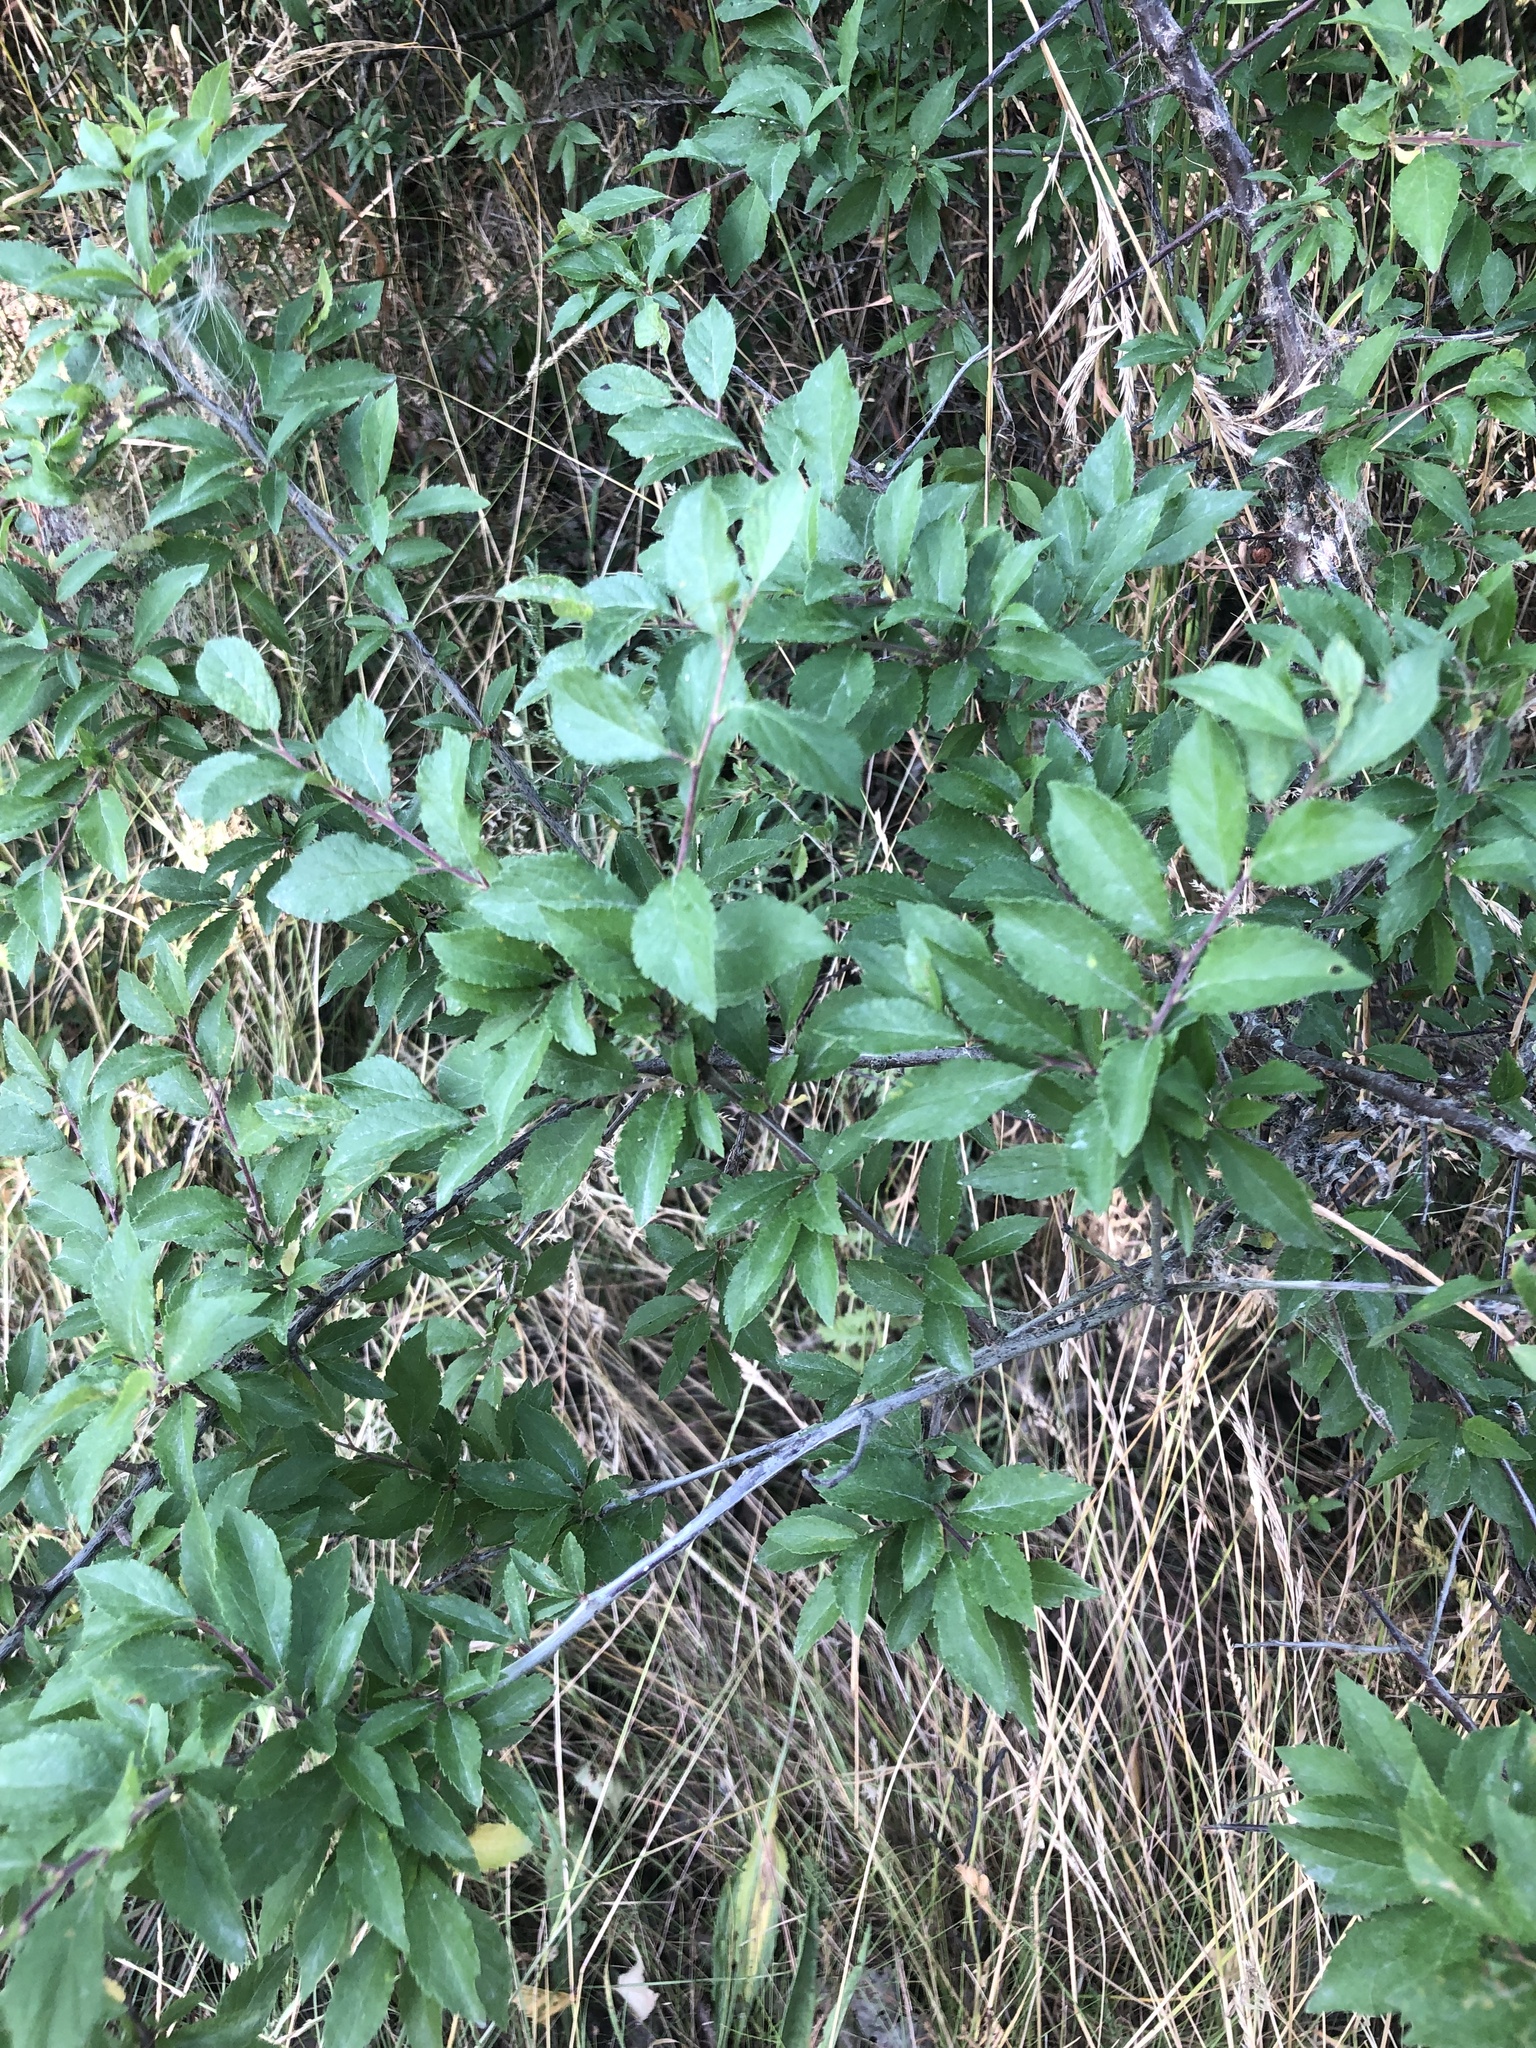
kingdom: Plantae
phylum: Tracheophyta
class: Magnoliopsida
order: Rosales
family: Rosaceae
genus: Prunus
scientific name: Prunus spinosa
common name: Blackthorn
